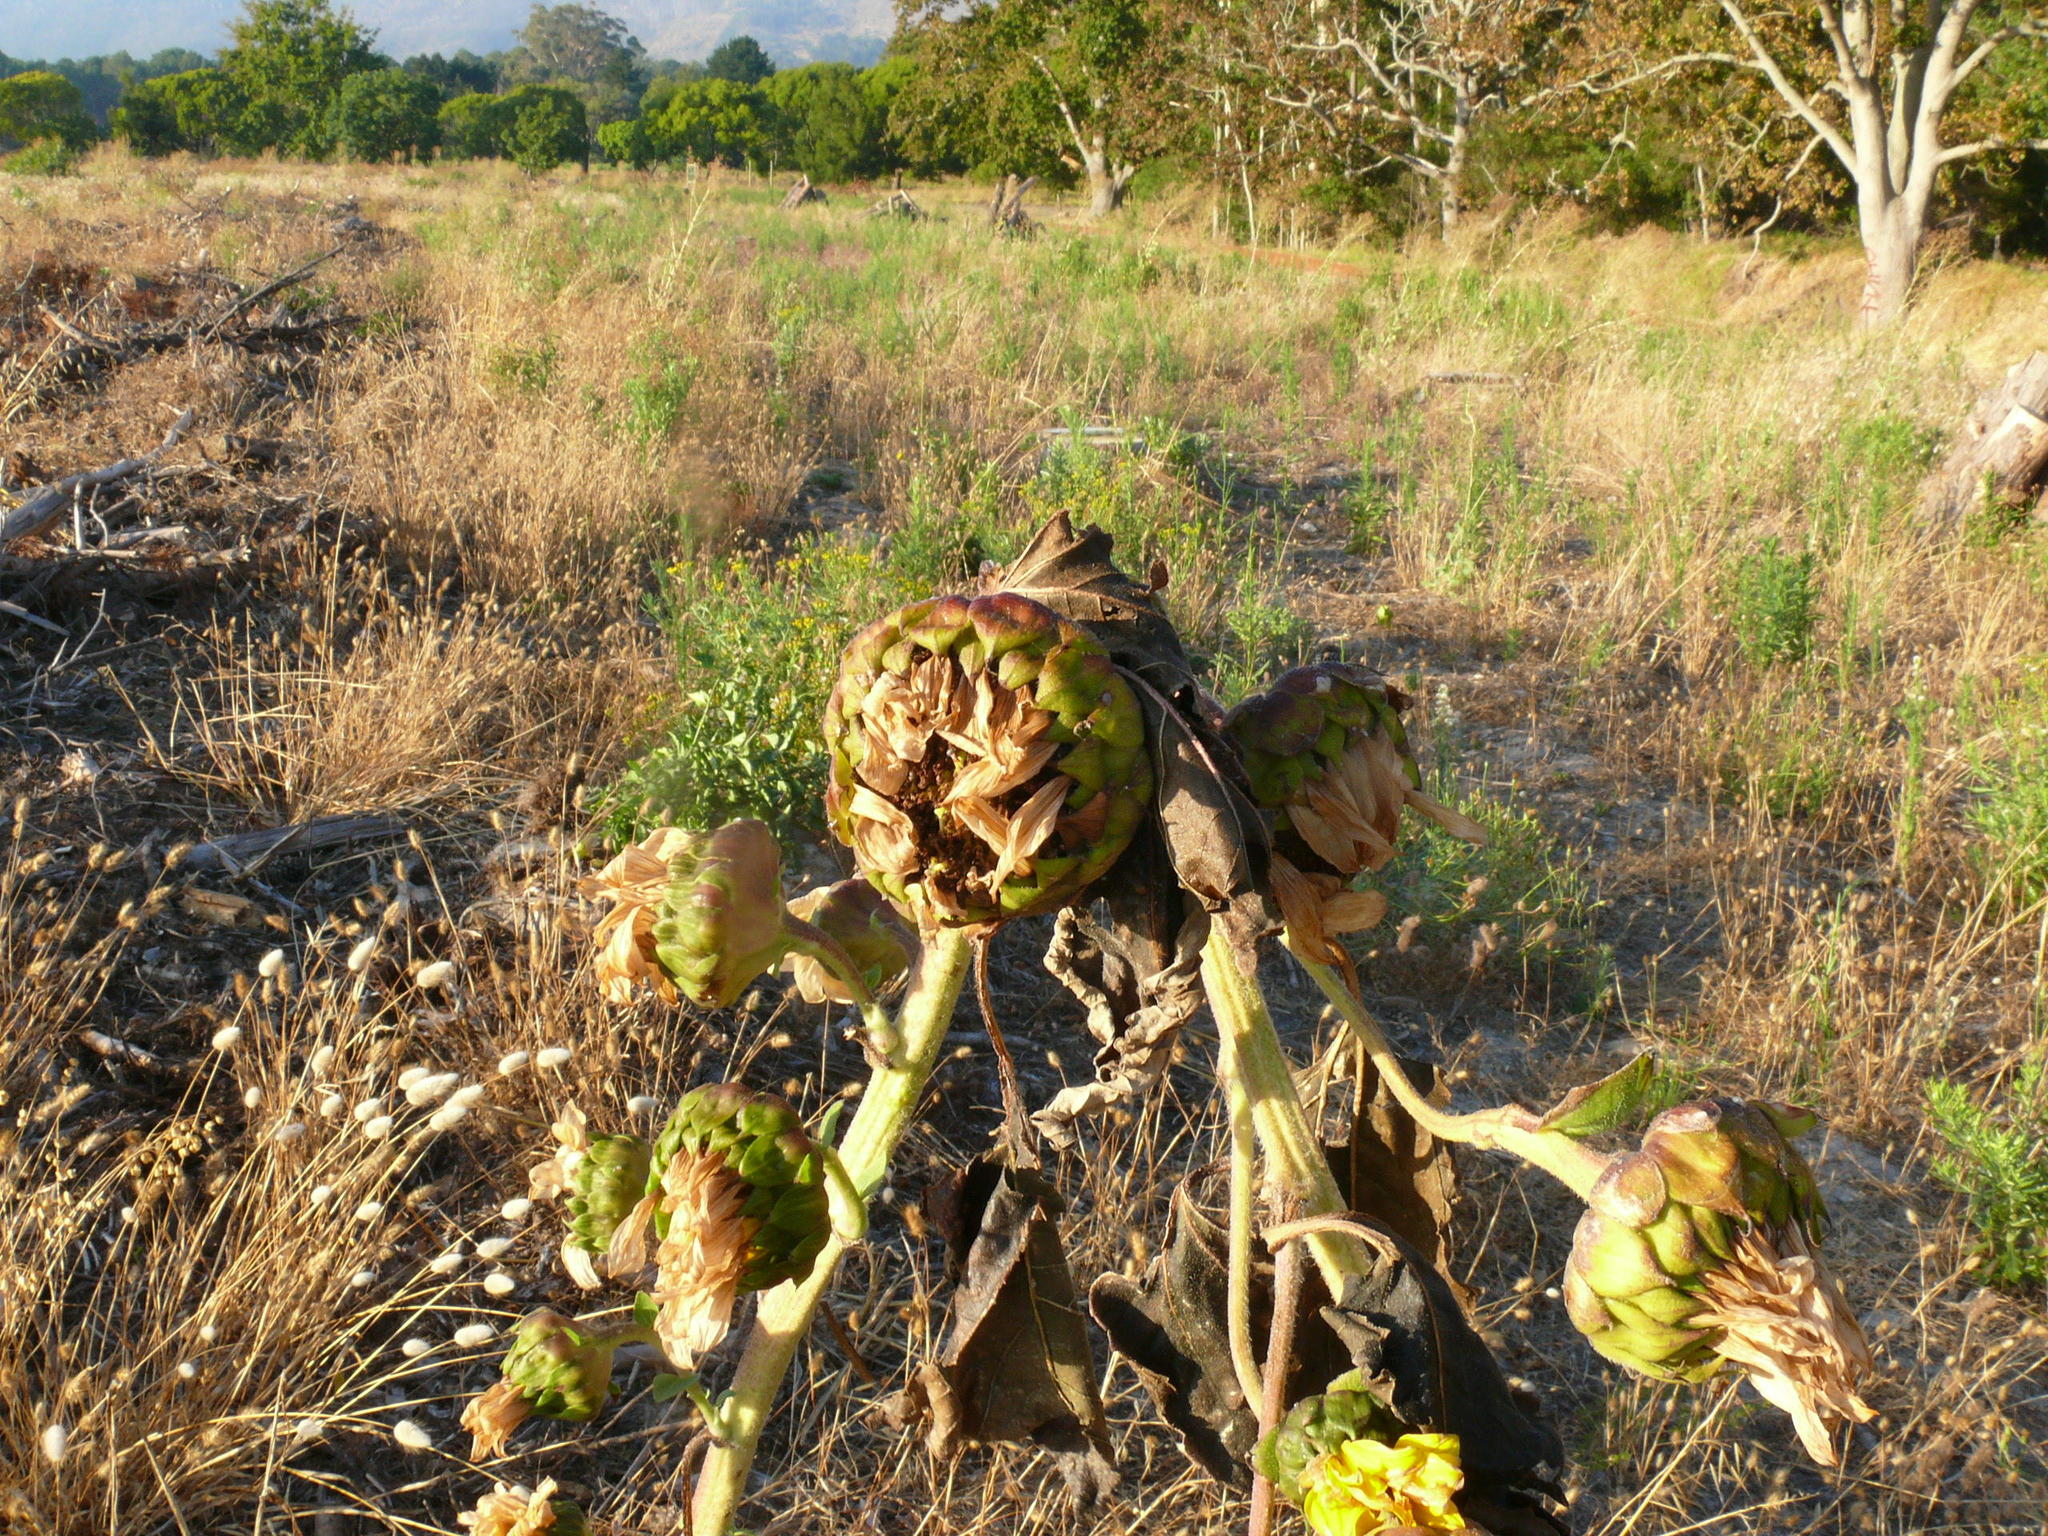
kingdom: Plantae
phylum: Tracheophyta
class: Magnoliopsida
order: Asterales
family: Asteraceae
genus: Helianthus
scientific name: Helianthus annuus
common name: Sunflower
